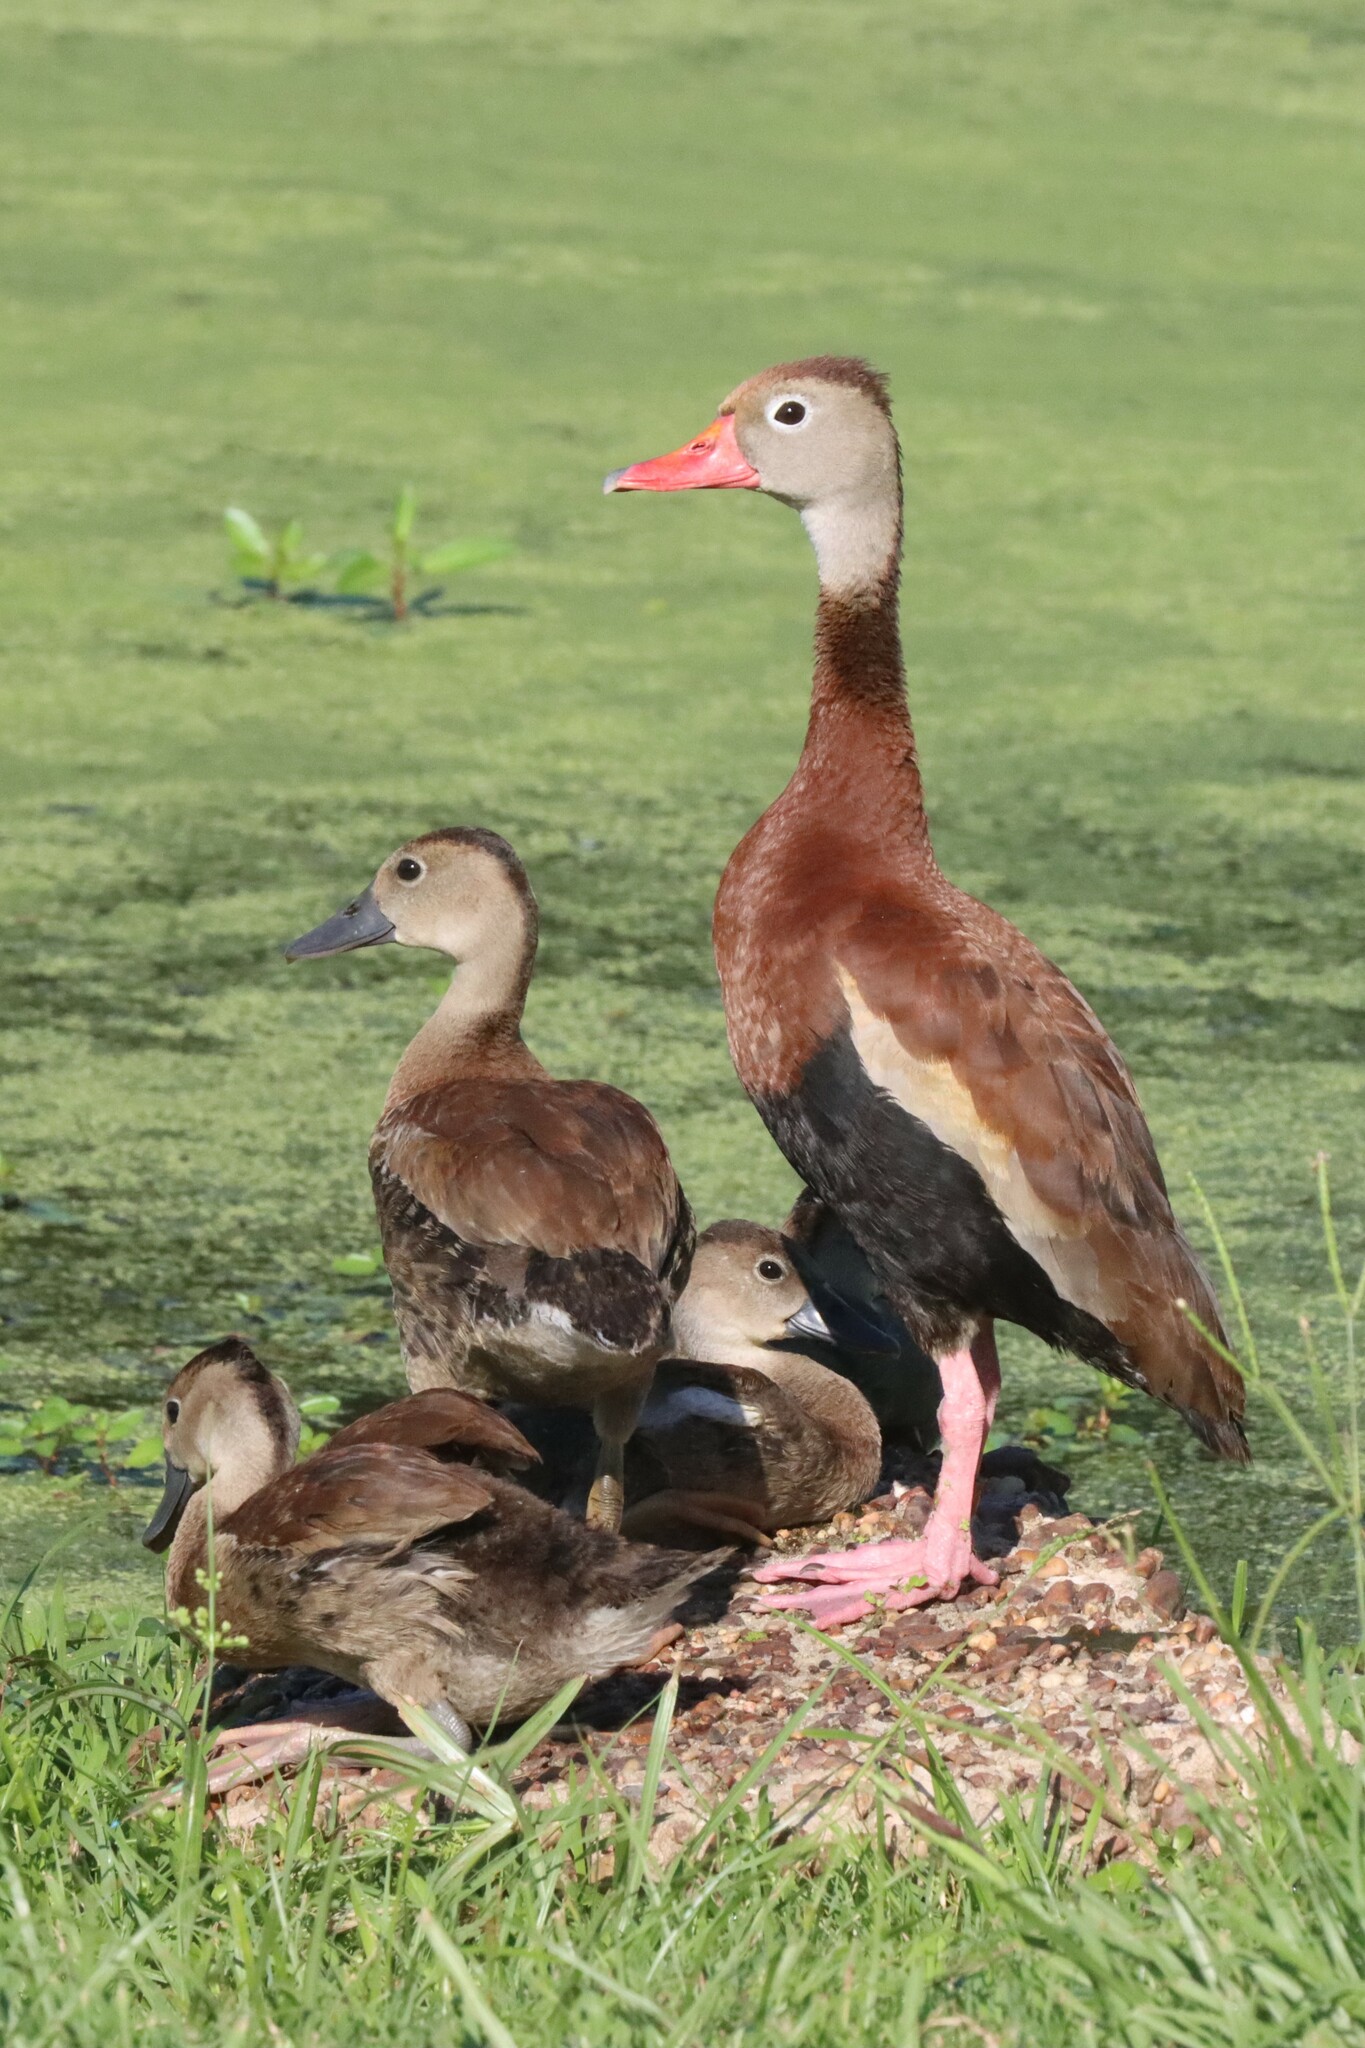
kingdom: Animalia
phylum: Chordata
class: Aves
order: Anseriformes
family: Anatidae
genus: Dendrocygna
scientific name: Dendrocygna autumnalis
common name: Black-bellied whistling duck
